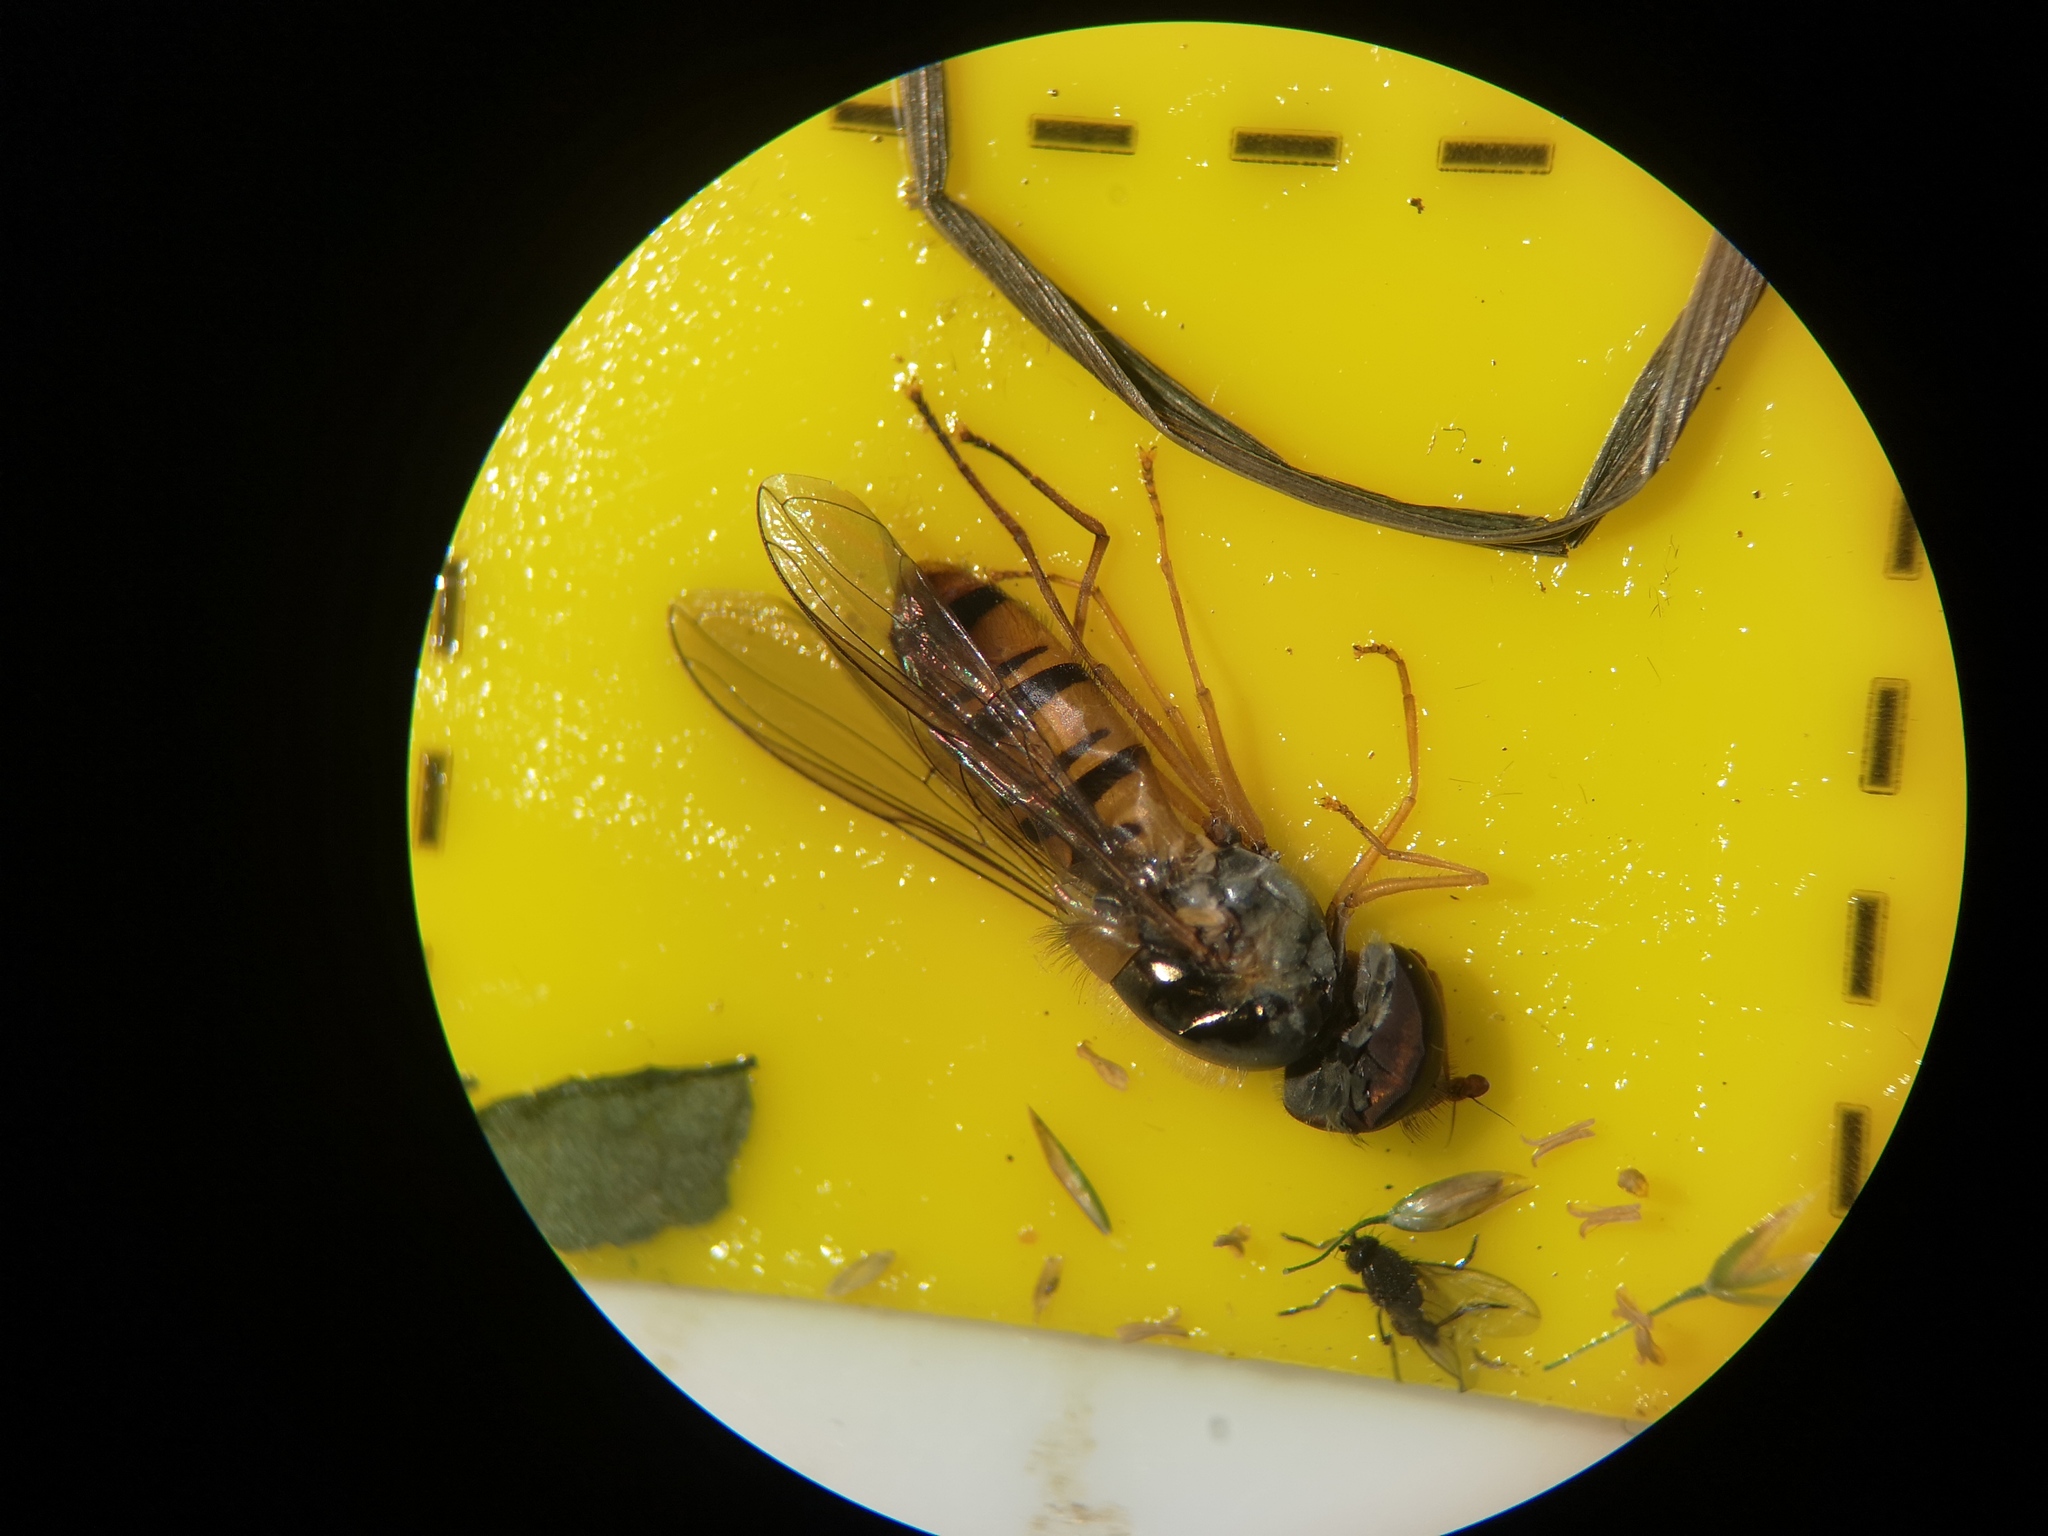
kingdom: Animalia
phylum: Arthropoda
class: Insecta
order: Diptera
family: Syrphidae
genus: Episyrphus
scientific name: Episyrphus balteatus
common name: Marmalade hoverfly
